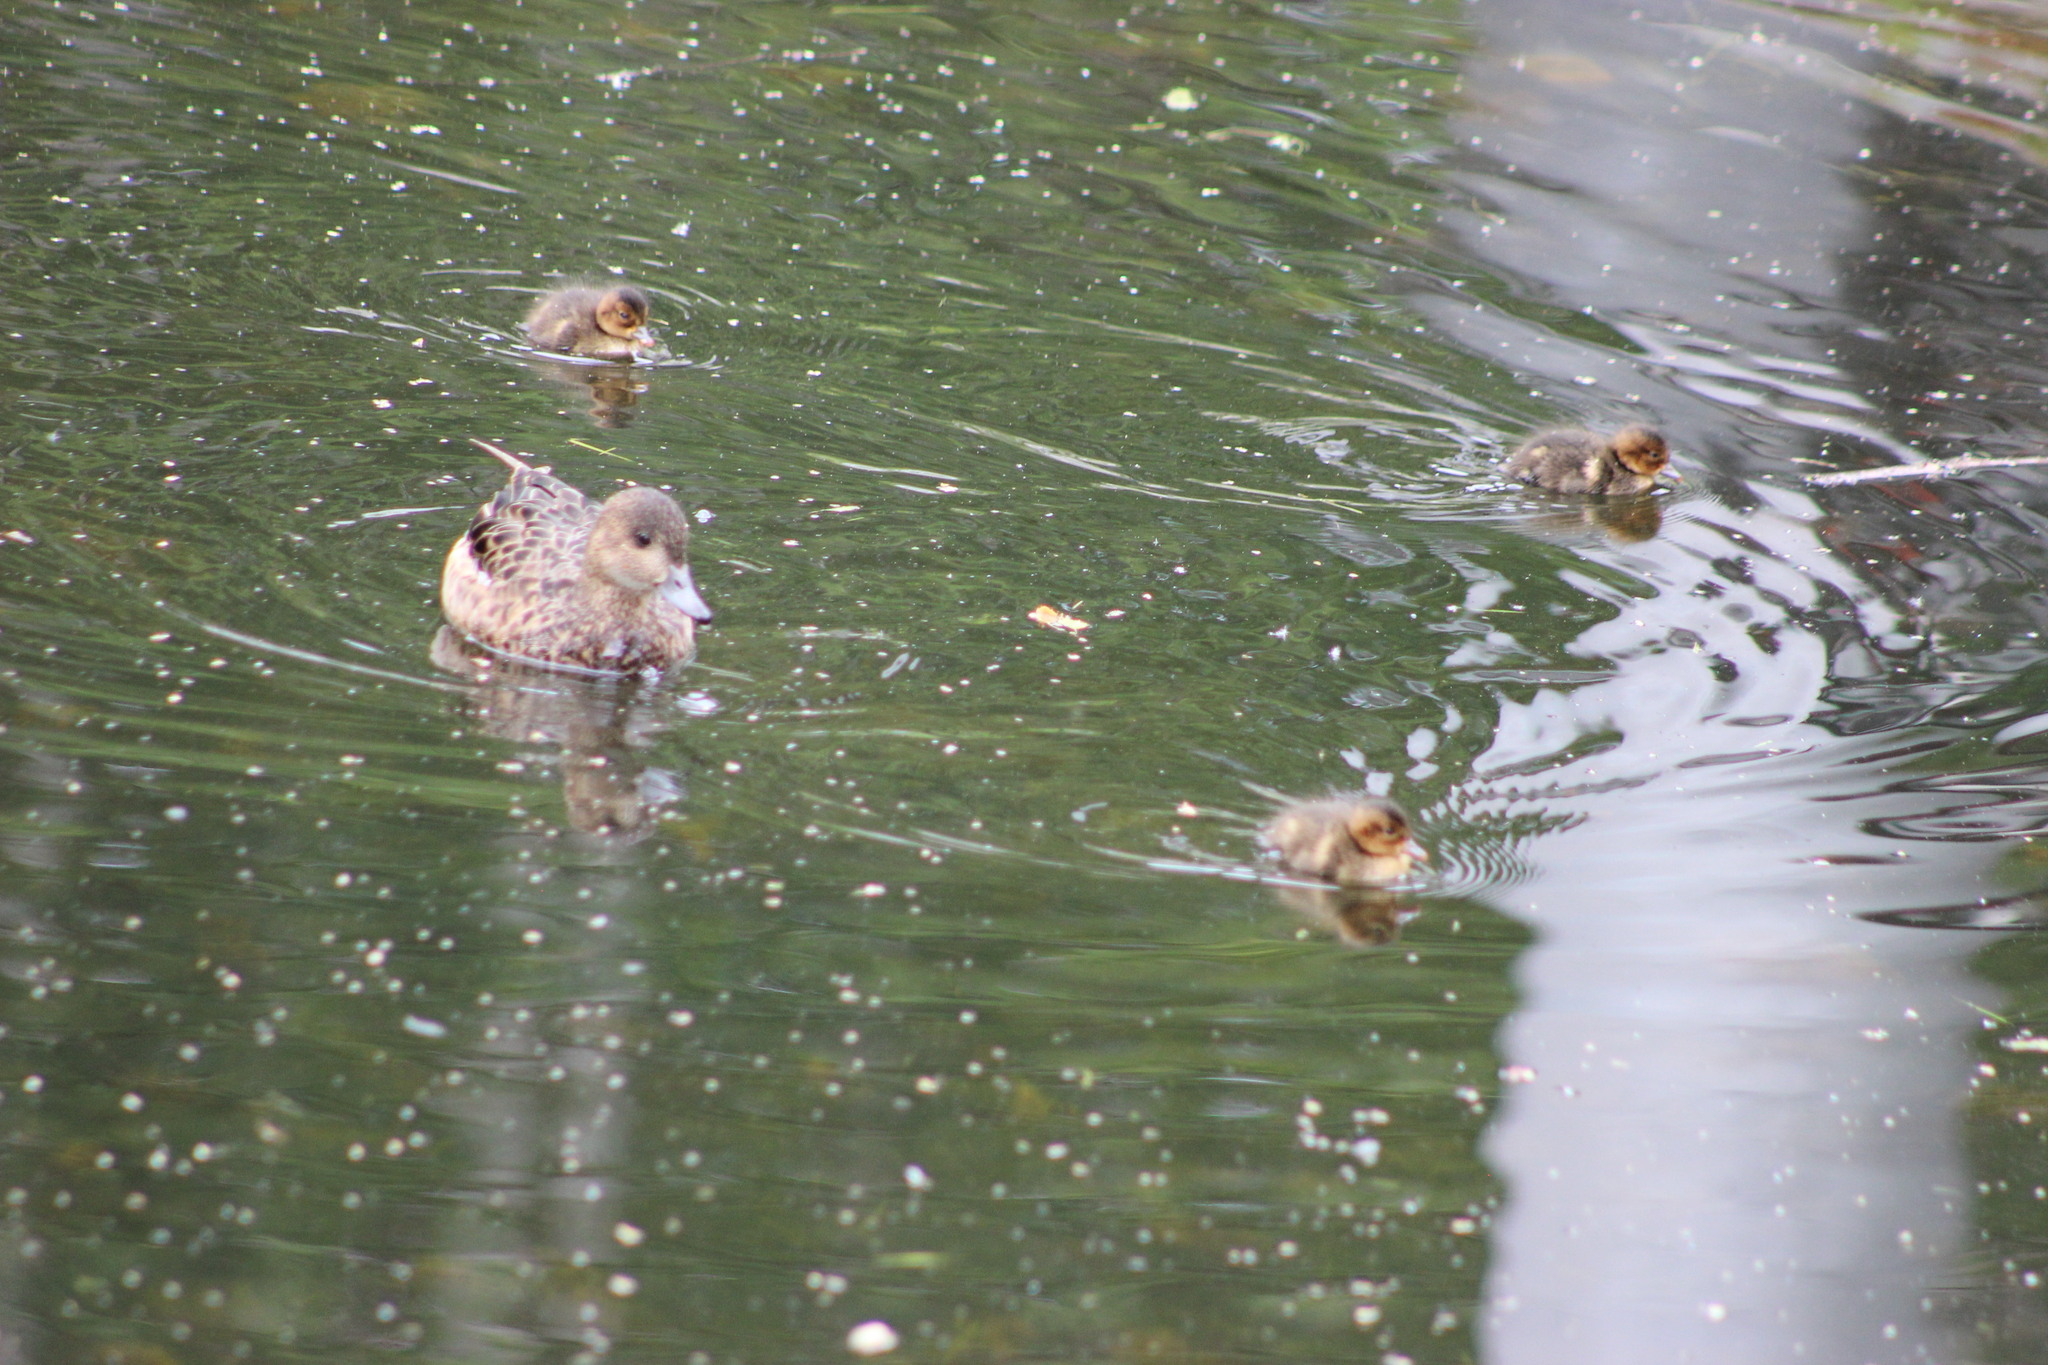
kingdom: Animalia
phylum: Chordata
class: Aves
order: Anseriformes
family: Anatidae
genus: Mareca
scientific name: Mareca penelope
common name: Eurasian wigeon
